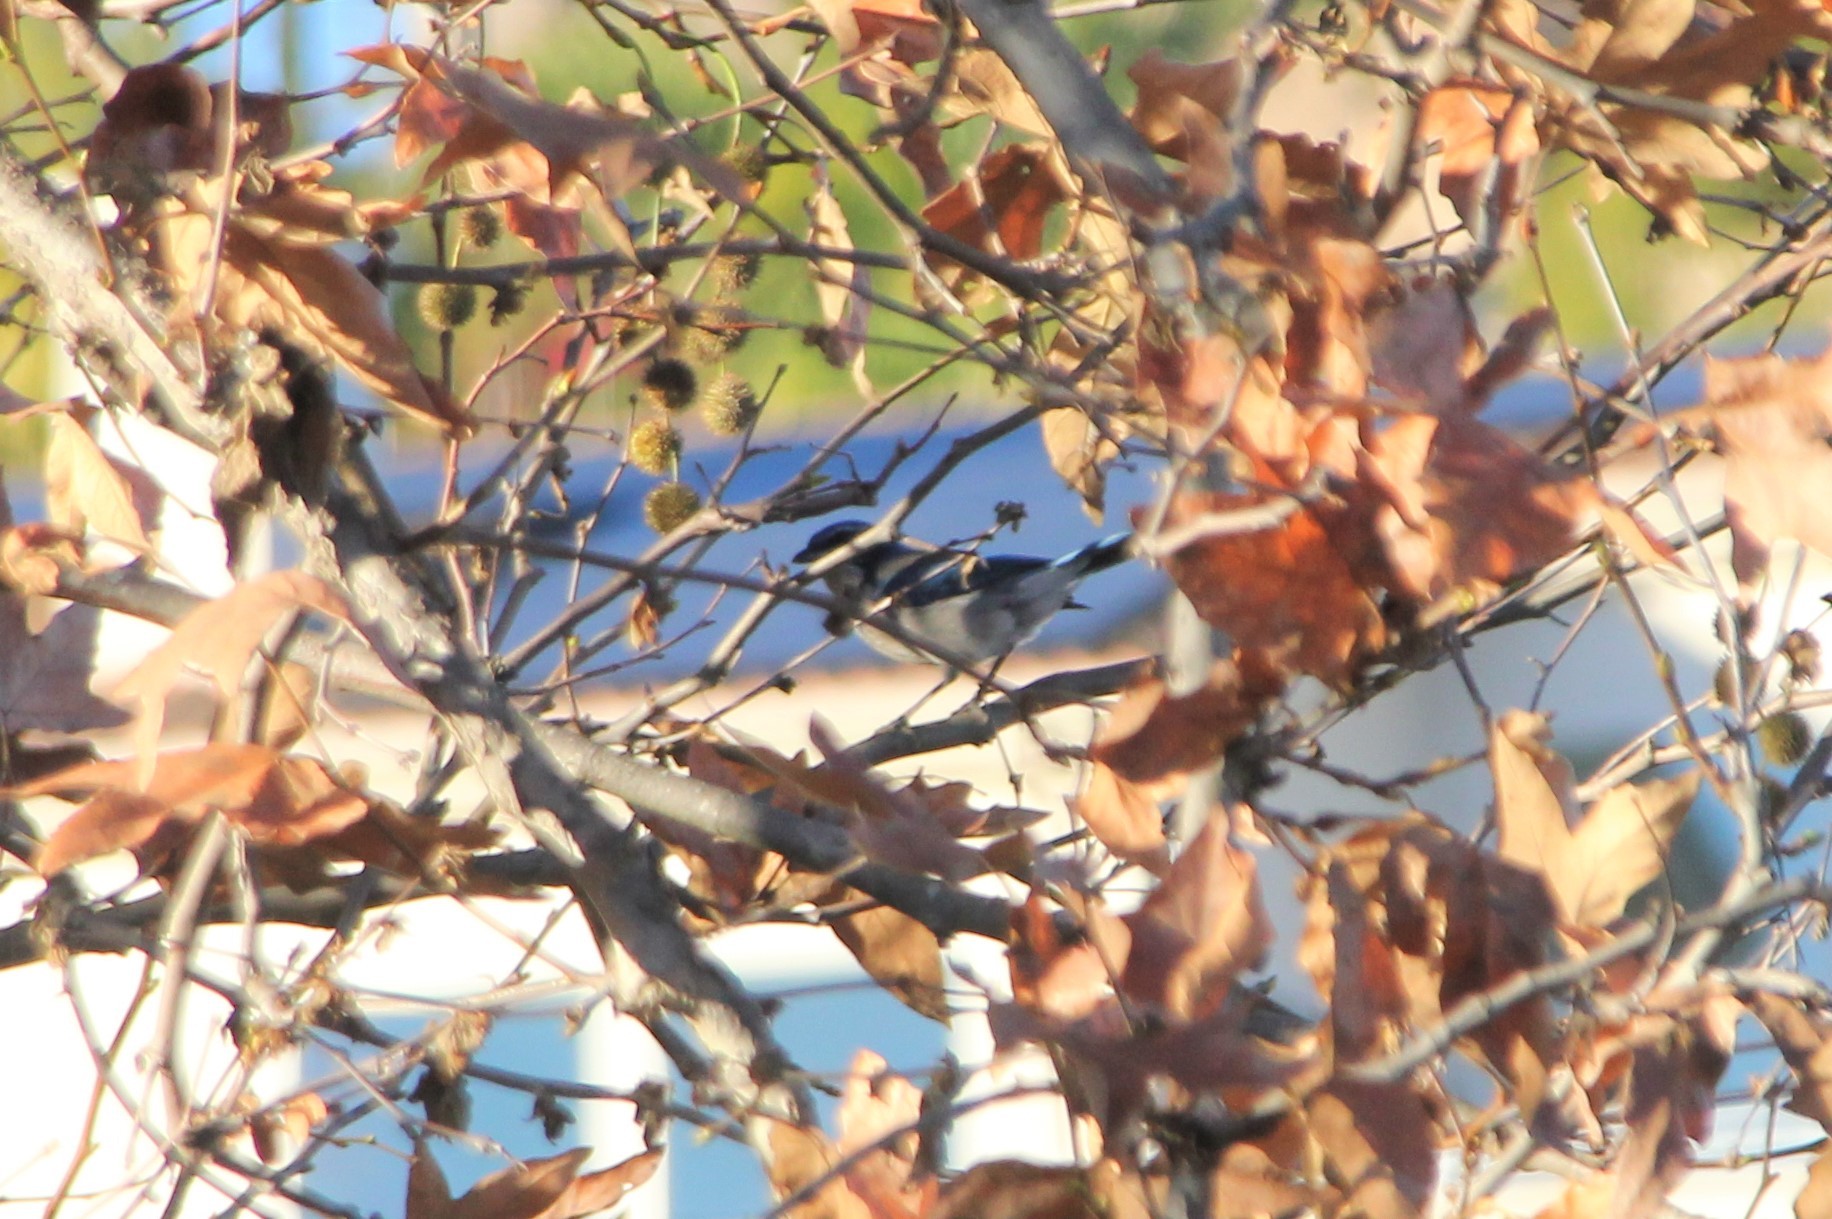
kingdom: Animalia
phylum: Chordata
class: Aves
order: Passeriformes
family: Corvidae
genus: Aphelocoma
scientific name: Aphelocoma californica
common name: California scrub-jay
